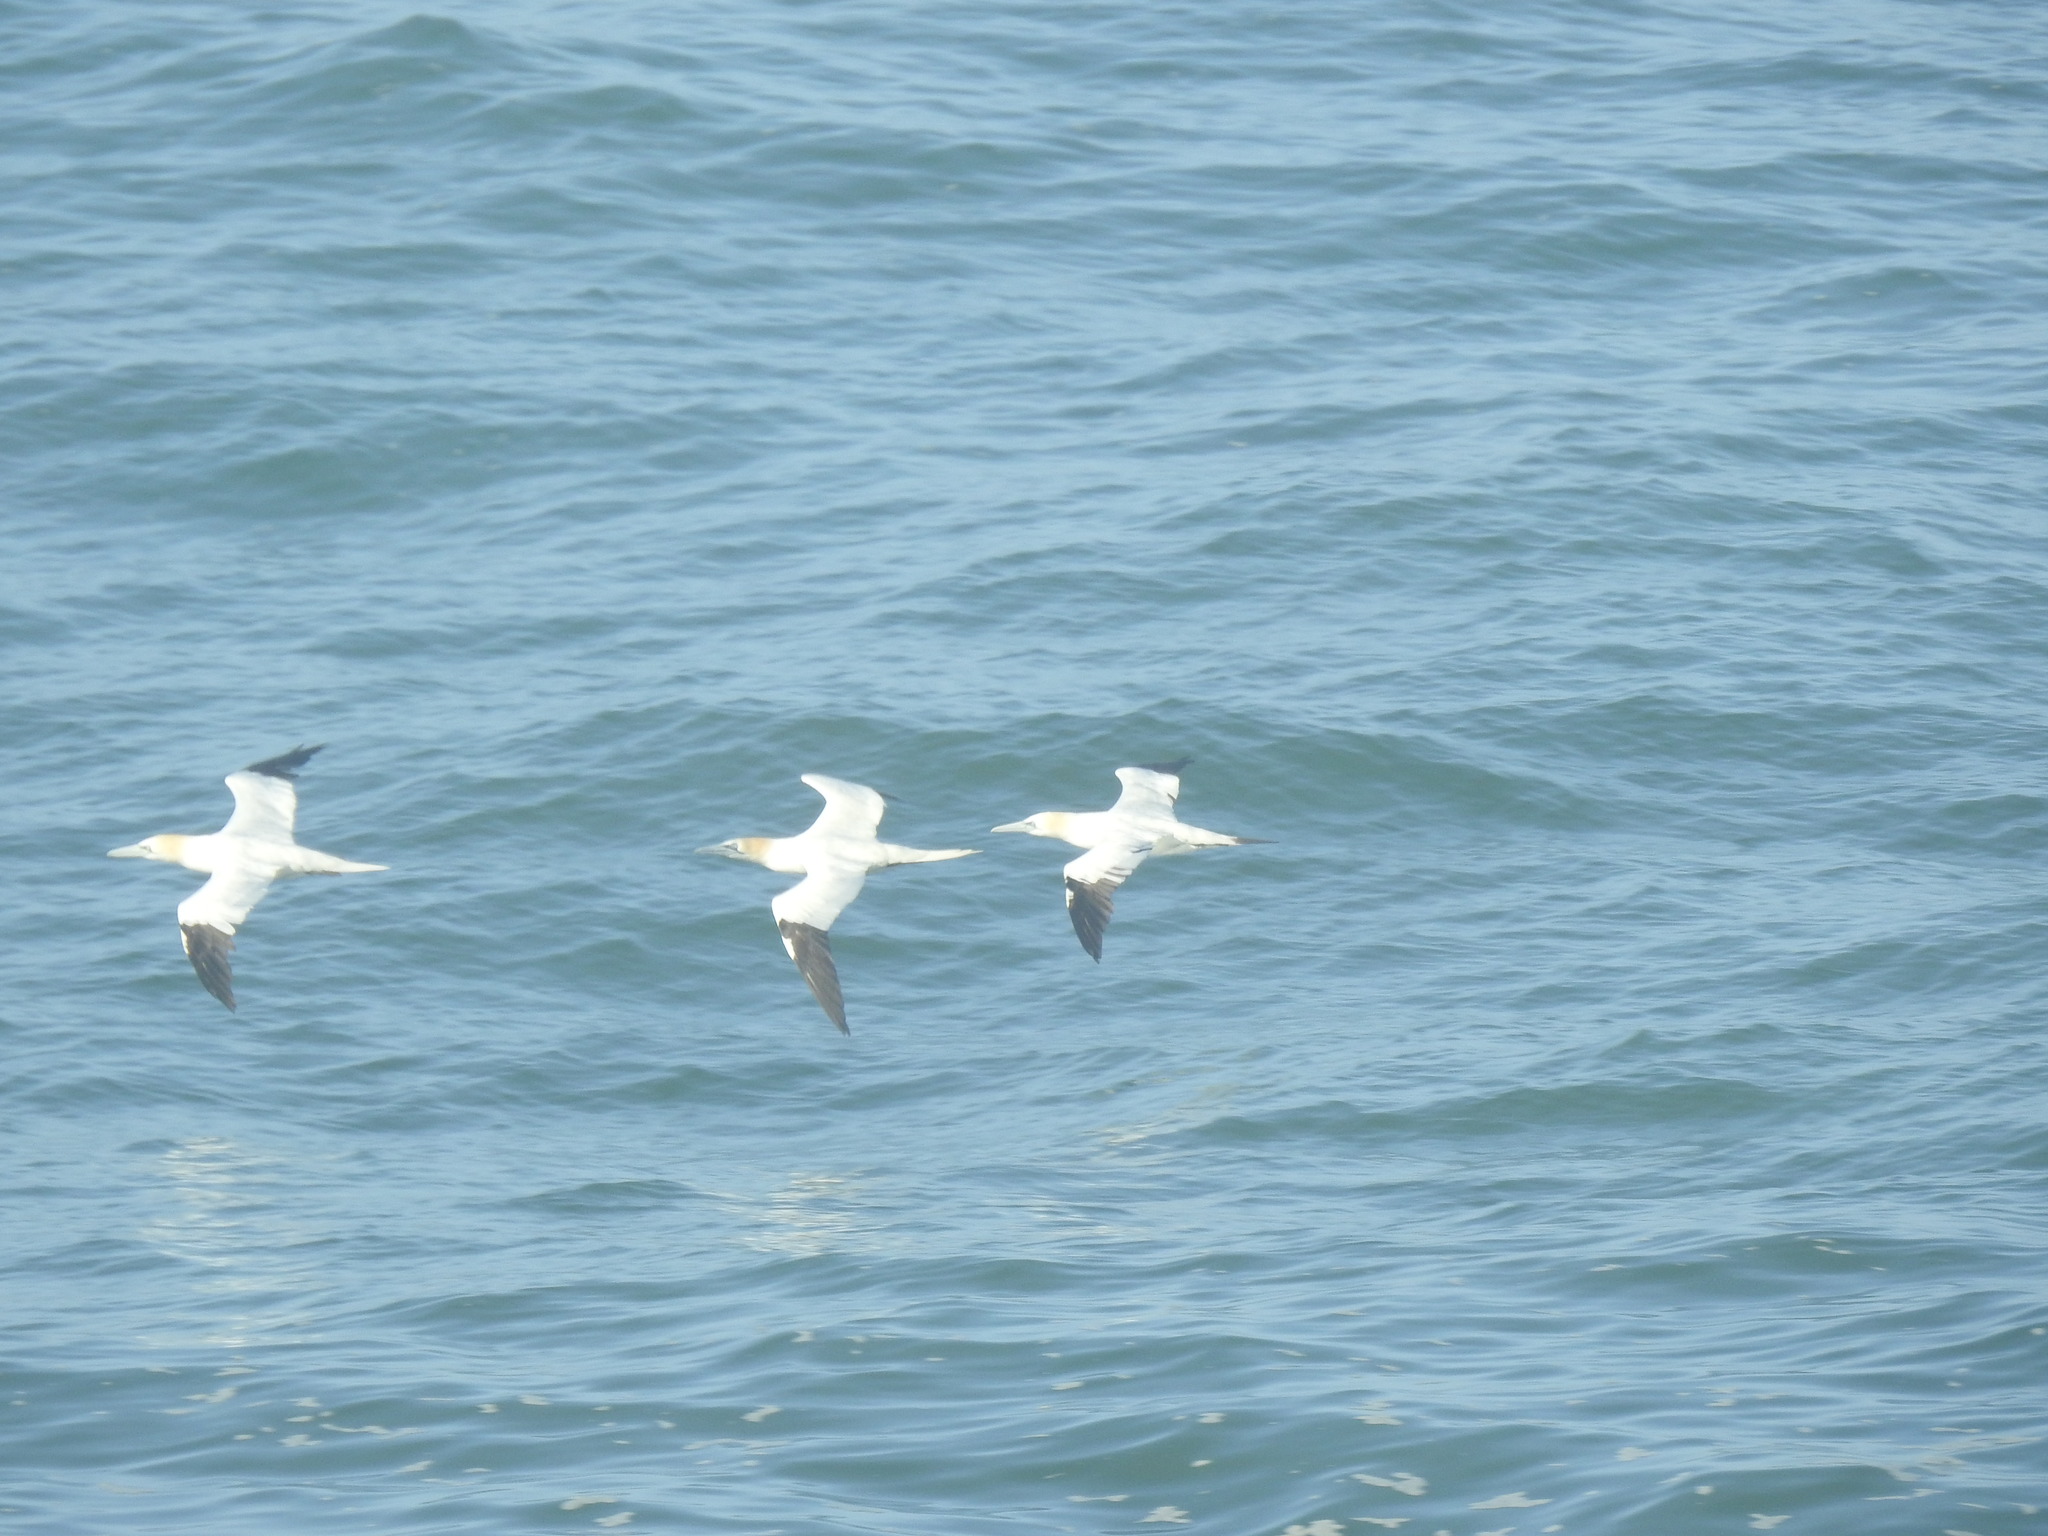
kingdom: Animalia
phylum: Chordata
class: Aves
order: Suliformes
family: Sulidae
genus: Morus
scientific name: Morus bassanus
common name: Northern gannet
